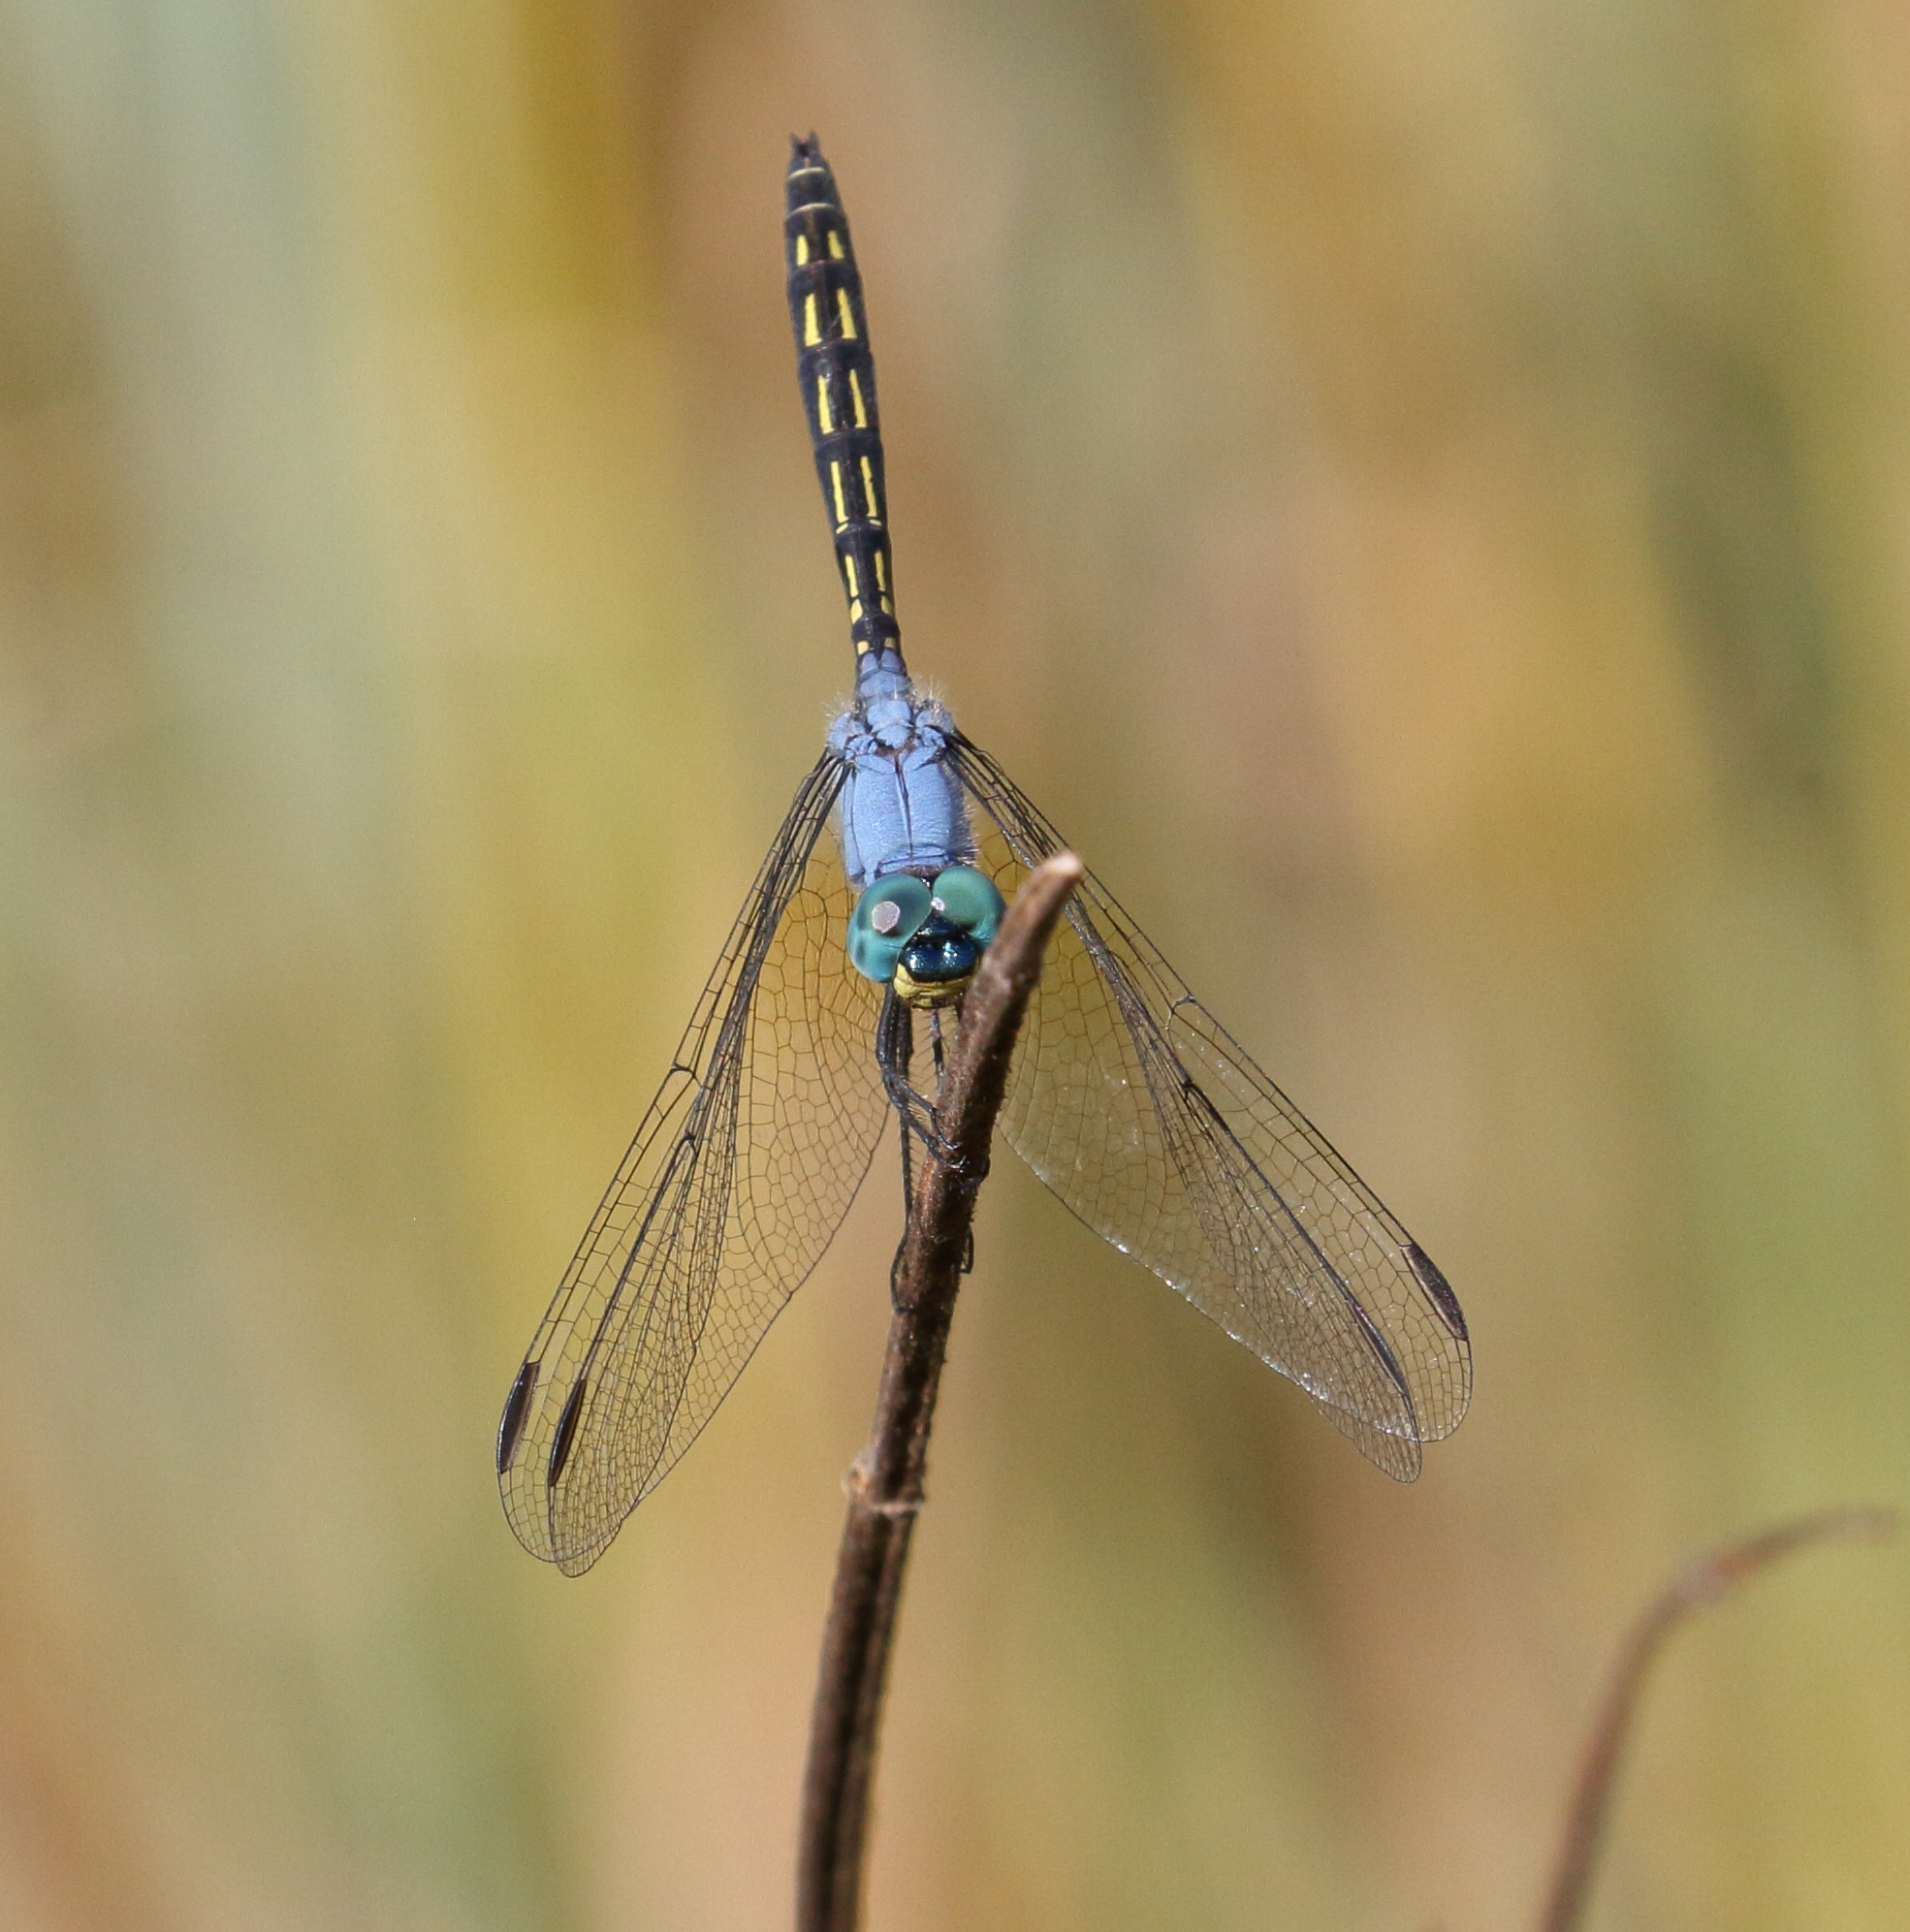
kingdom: Animalia
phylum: Arthropoda
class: Insecta
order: Odonata
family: Libellulidae
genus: Trithemis
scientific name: Trithemis stictica
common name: Jaunty dropwing
